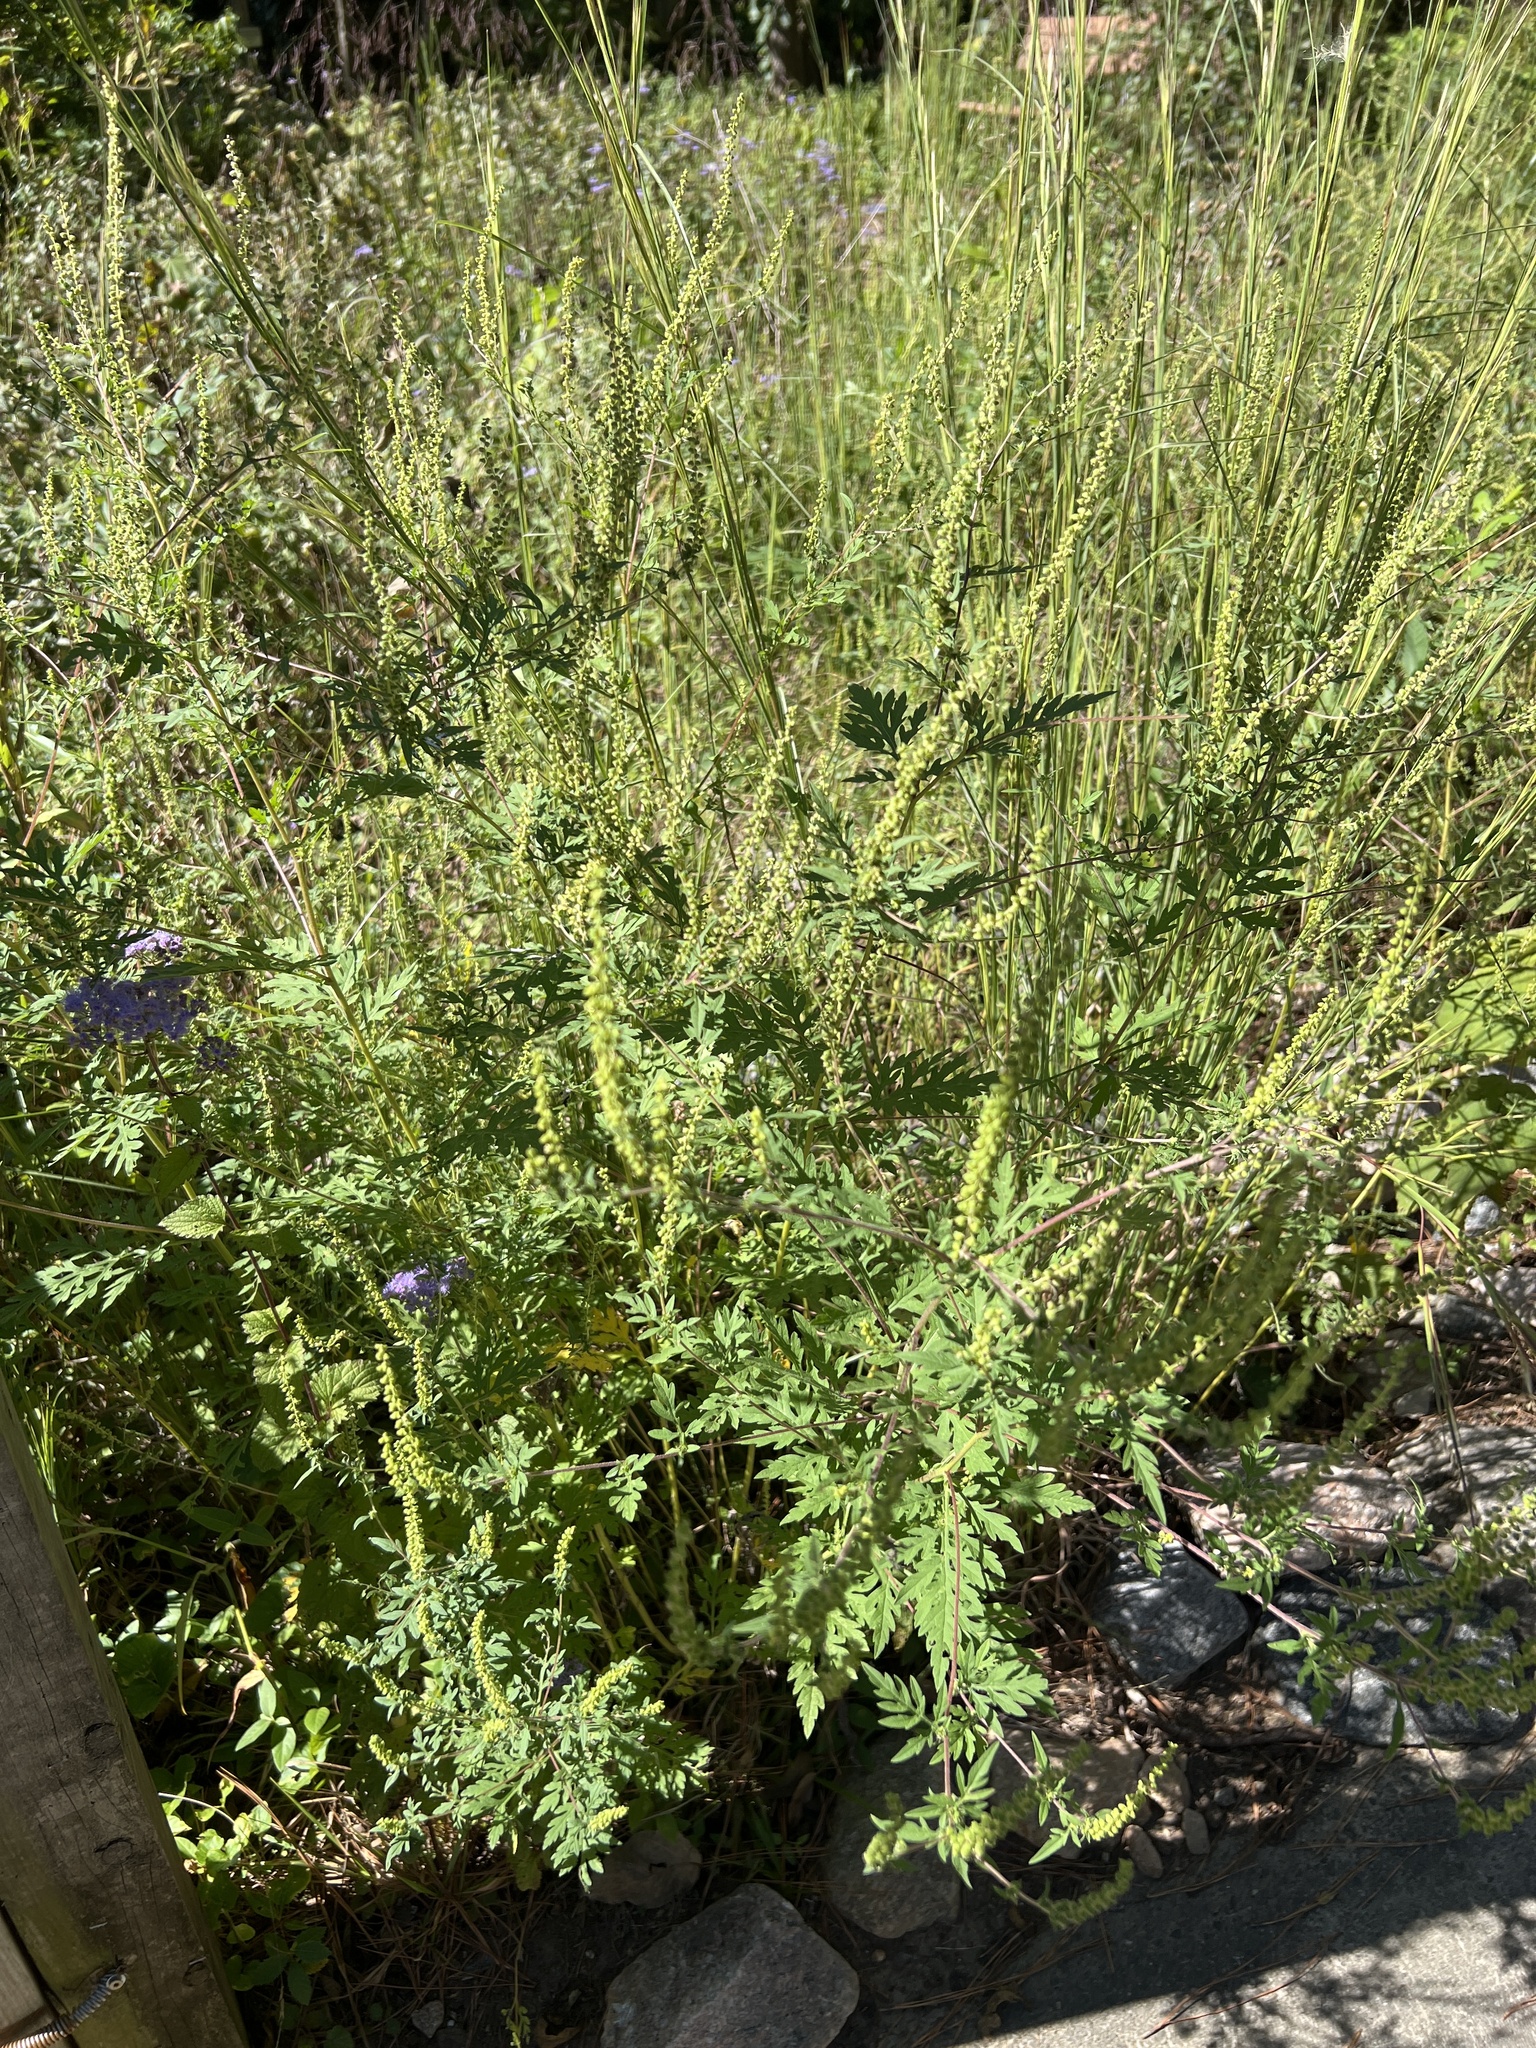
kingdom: Plantae
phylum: Tracheophyta
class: Magnoliopsida
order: Asterales
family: Asteraceae
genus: Ambrosia
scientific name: Ambrosia artemisiifolia
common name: Annual ragweed
